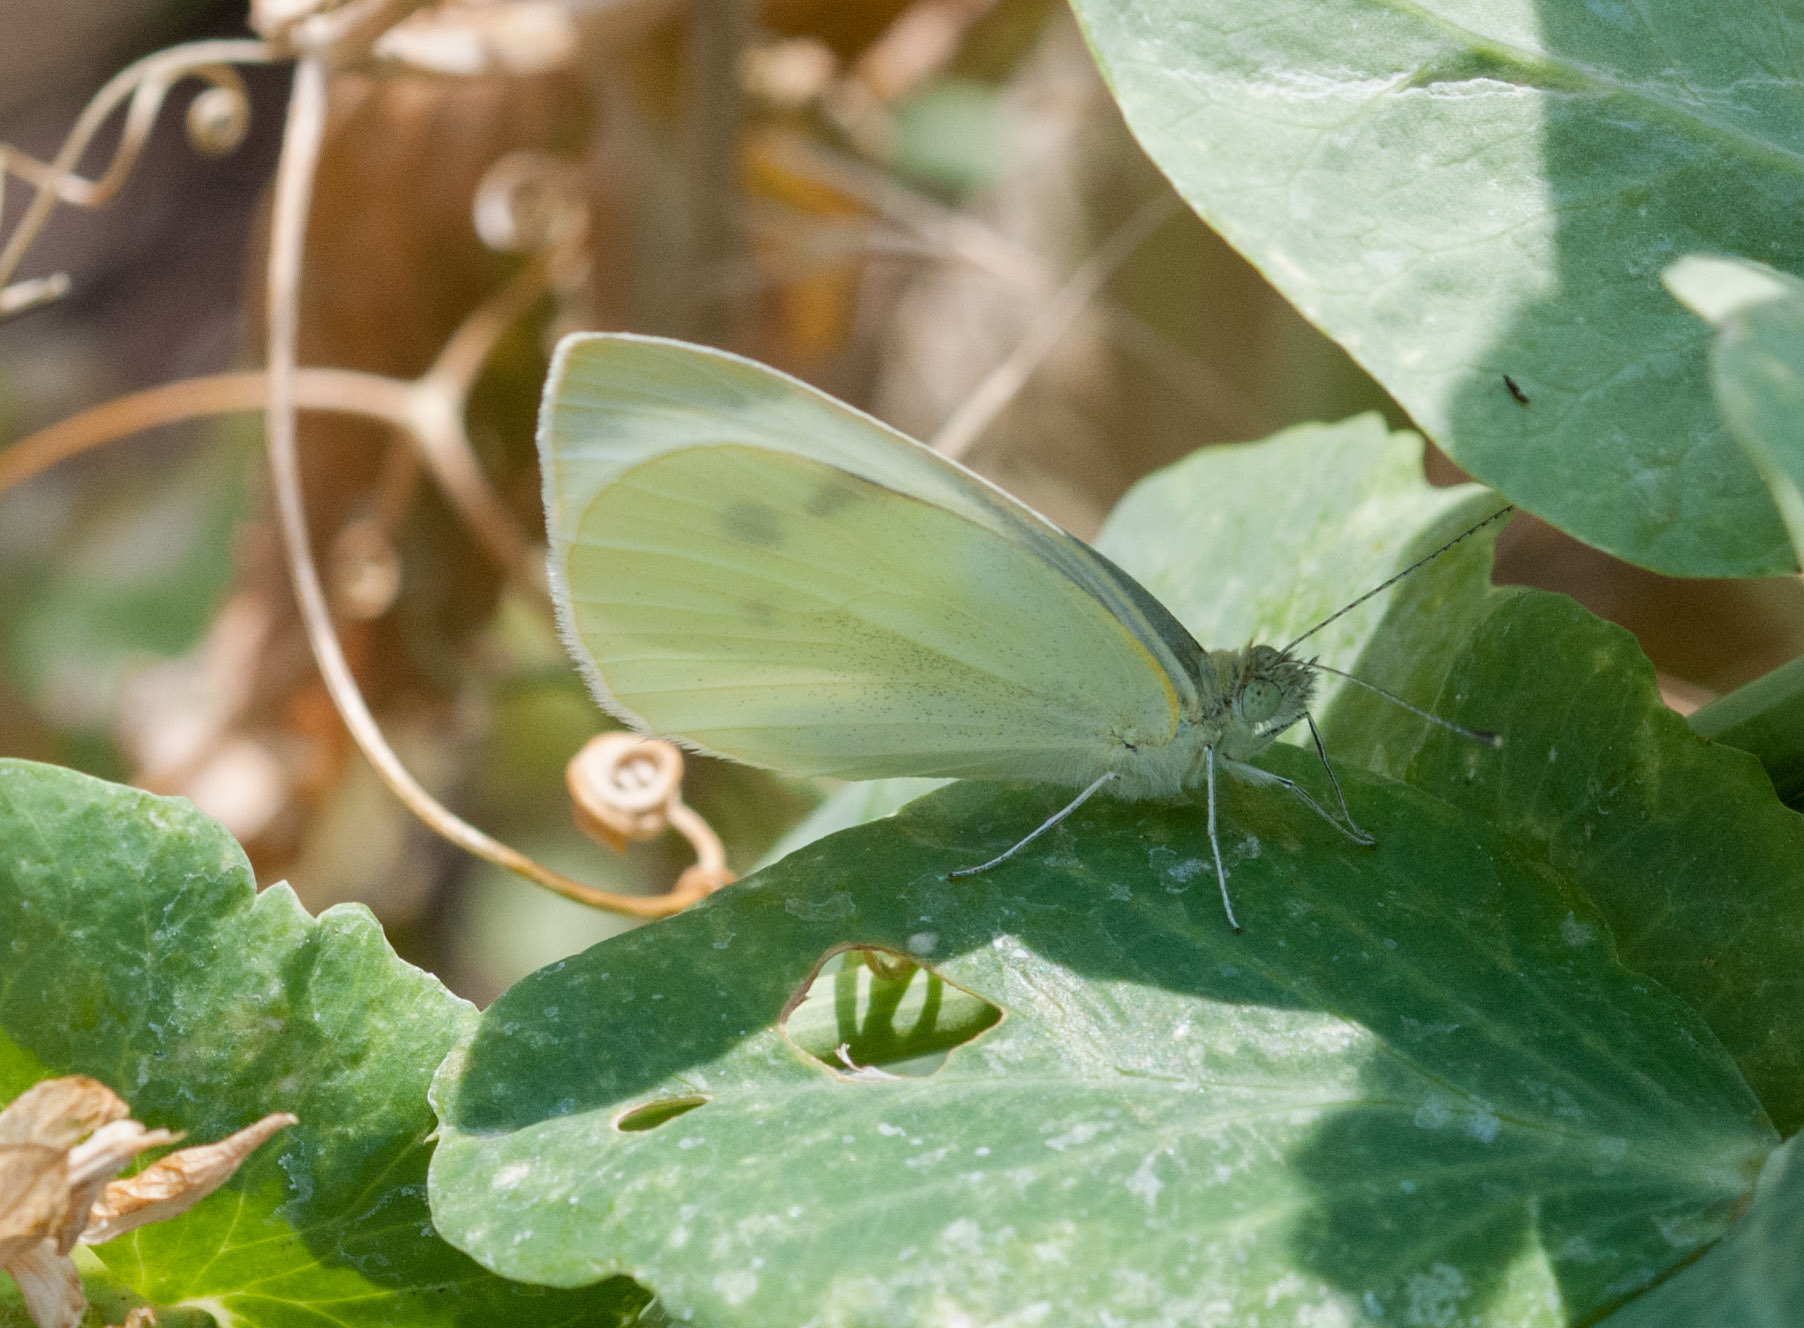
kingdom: Animalia
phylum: Arthropoda
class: Insecta
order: Lepidoptera
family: Pieridae
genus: Pieris
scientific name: Pieris rapae
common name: Small white
